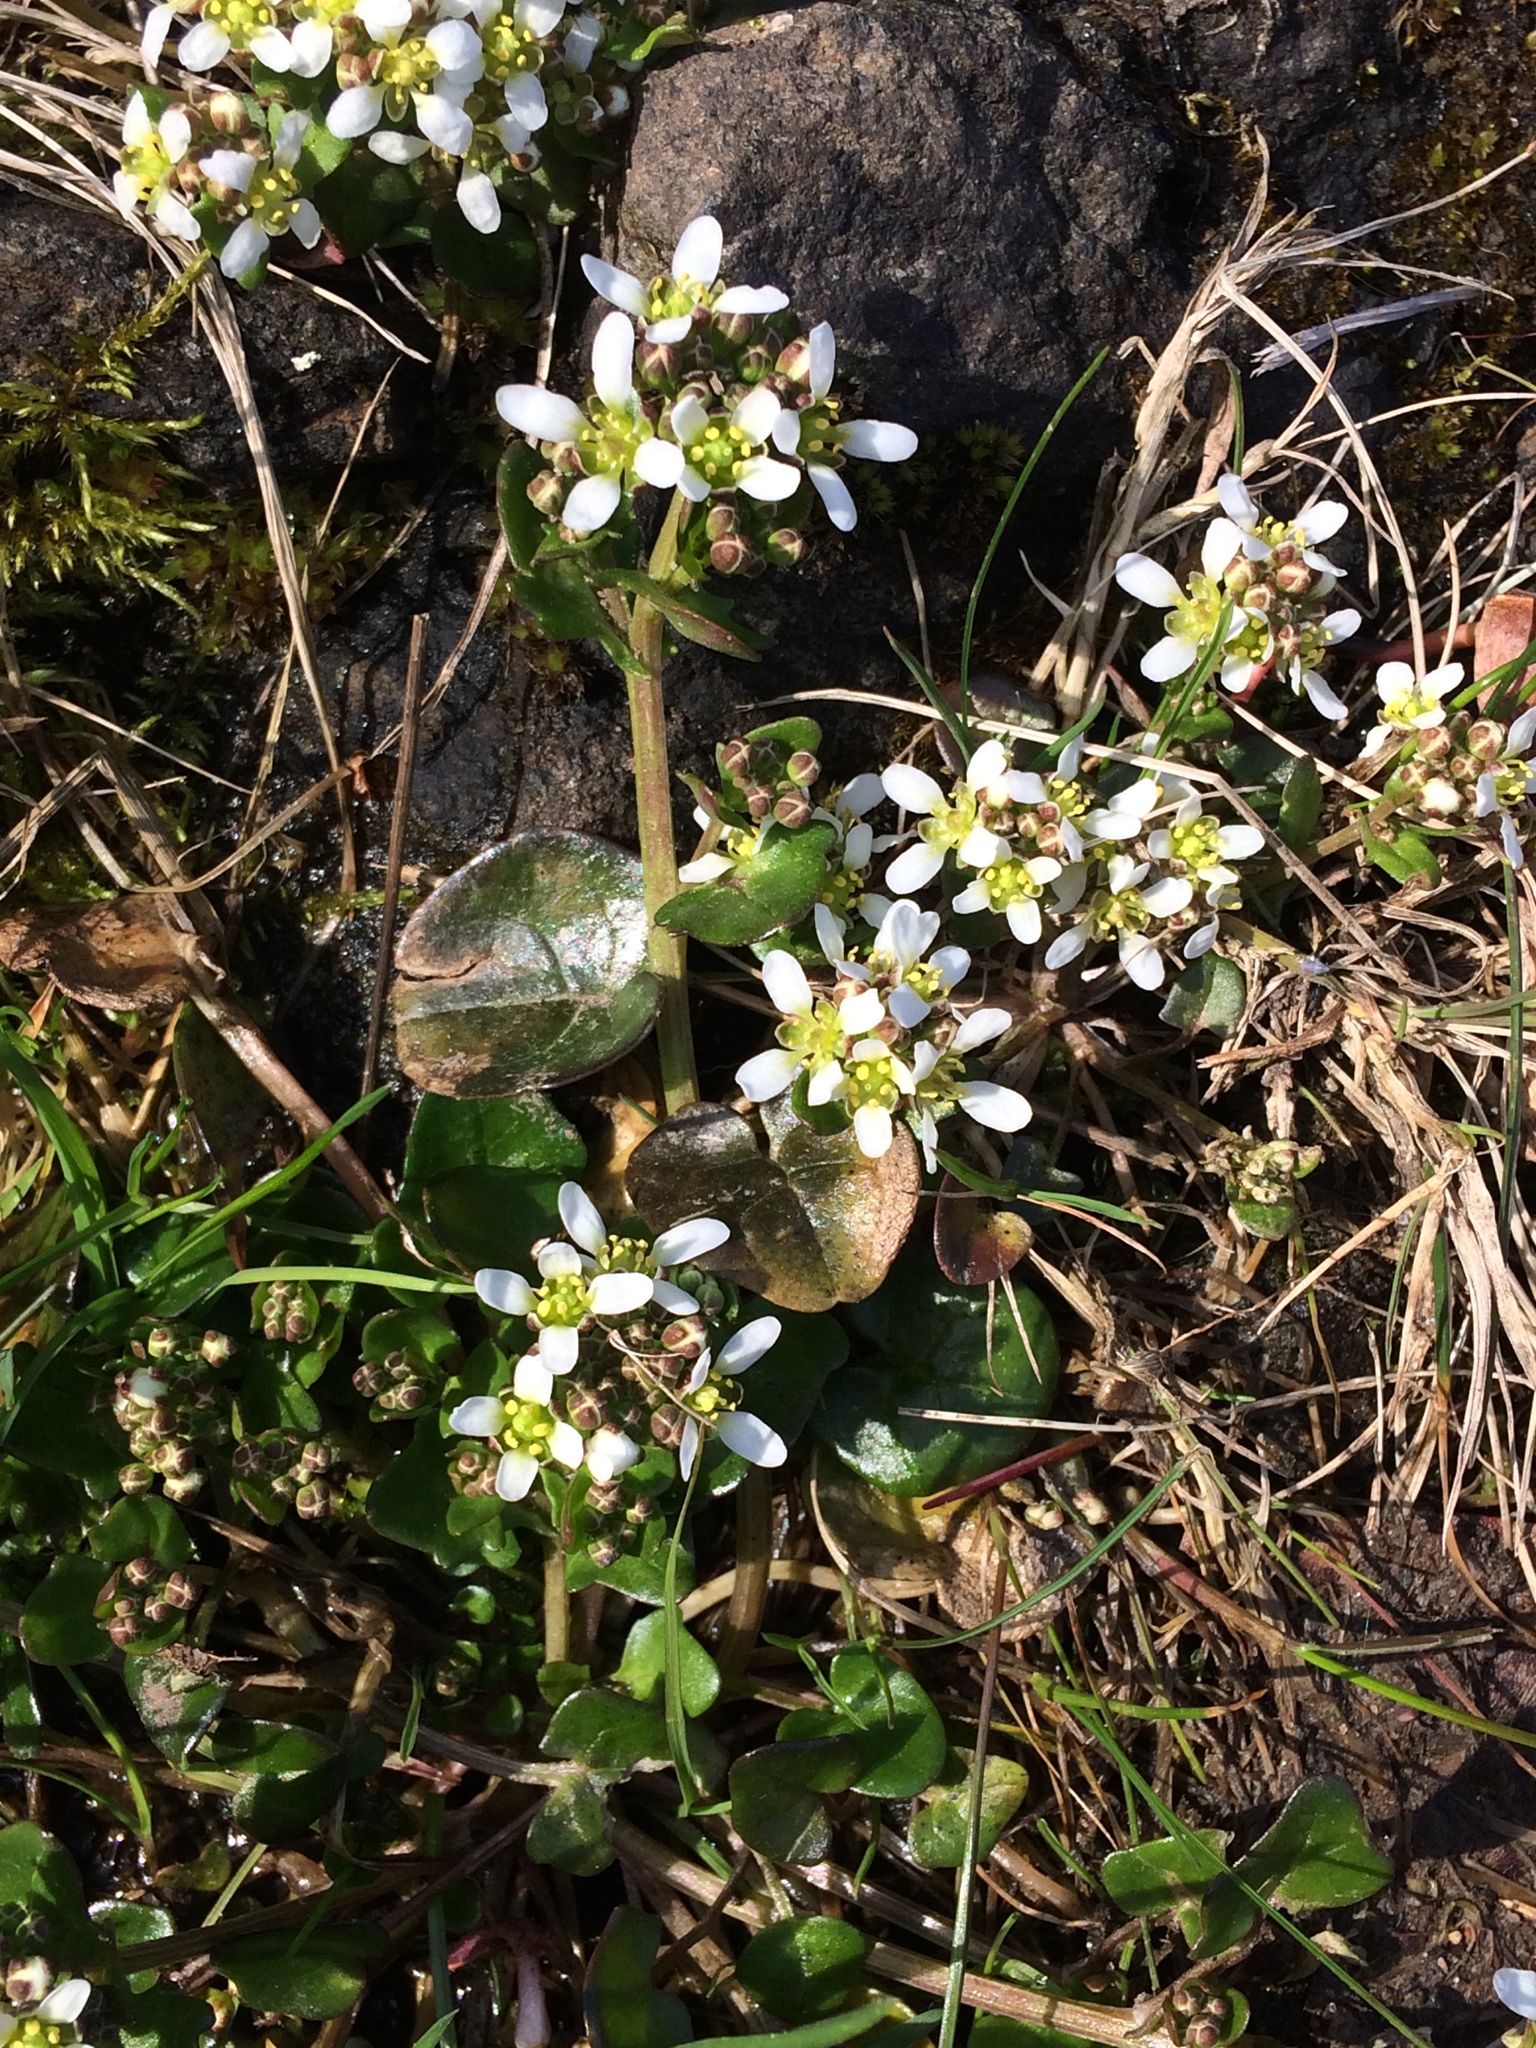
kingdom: Plantae
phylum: Tracheophyta
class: Magnoliopsida
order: Brassicales
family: Brassicaceae
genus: Cochlearia
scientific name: Cochlearia officinalis
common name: Scurvy-grass
